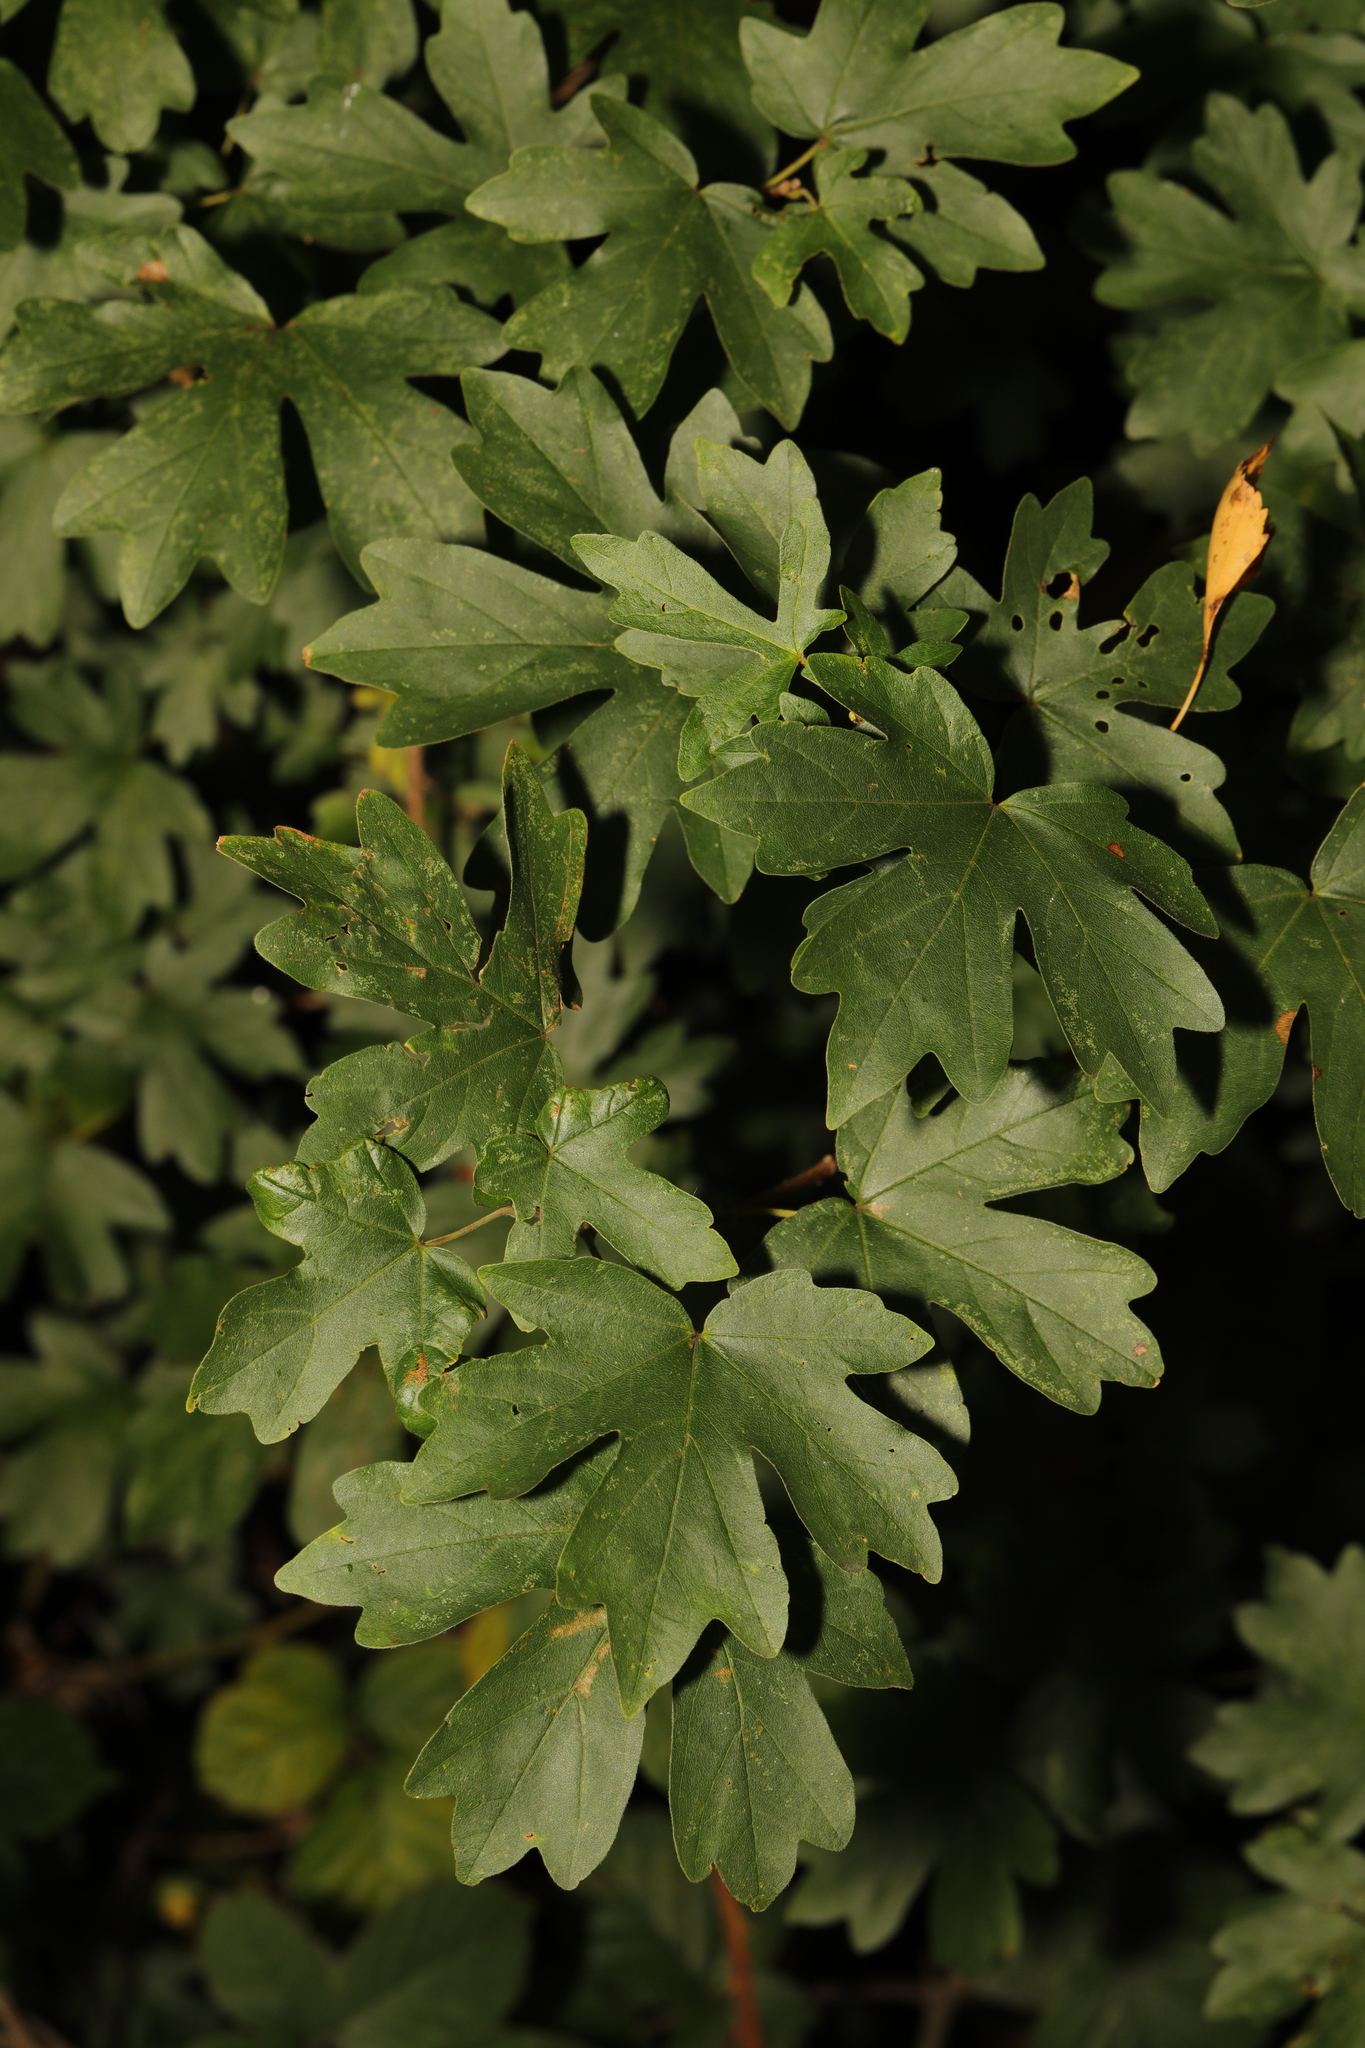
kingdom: Plantae
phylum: Tracheophyta
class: Magnoliopsida
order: Sapindales
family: Sapindaceae
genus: Acer
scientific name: Acer campestre
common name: Field maple
